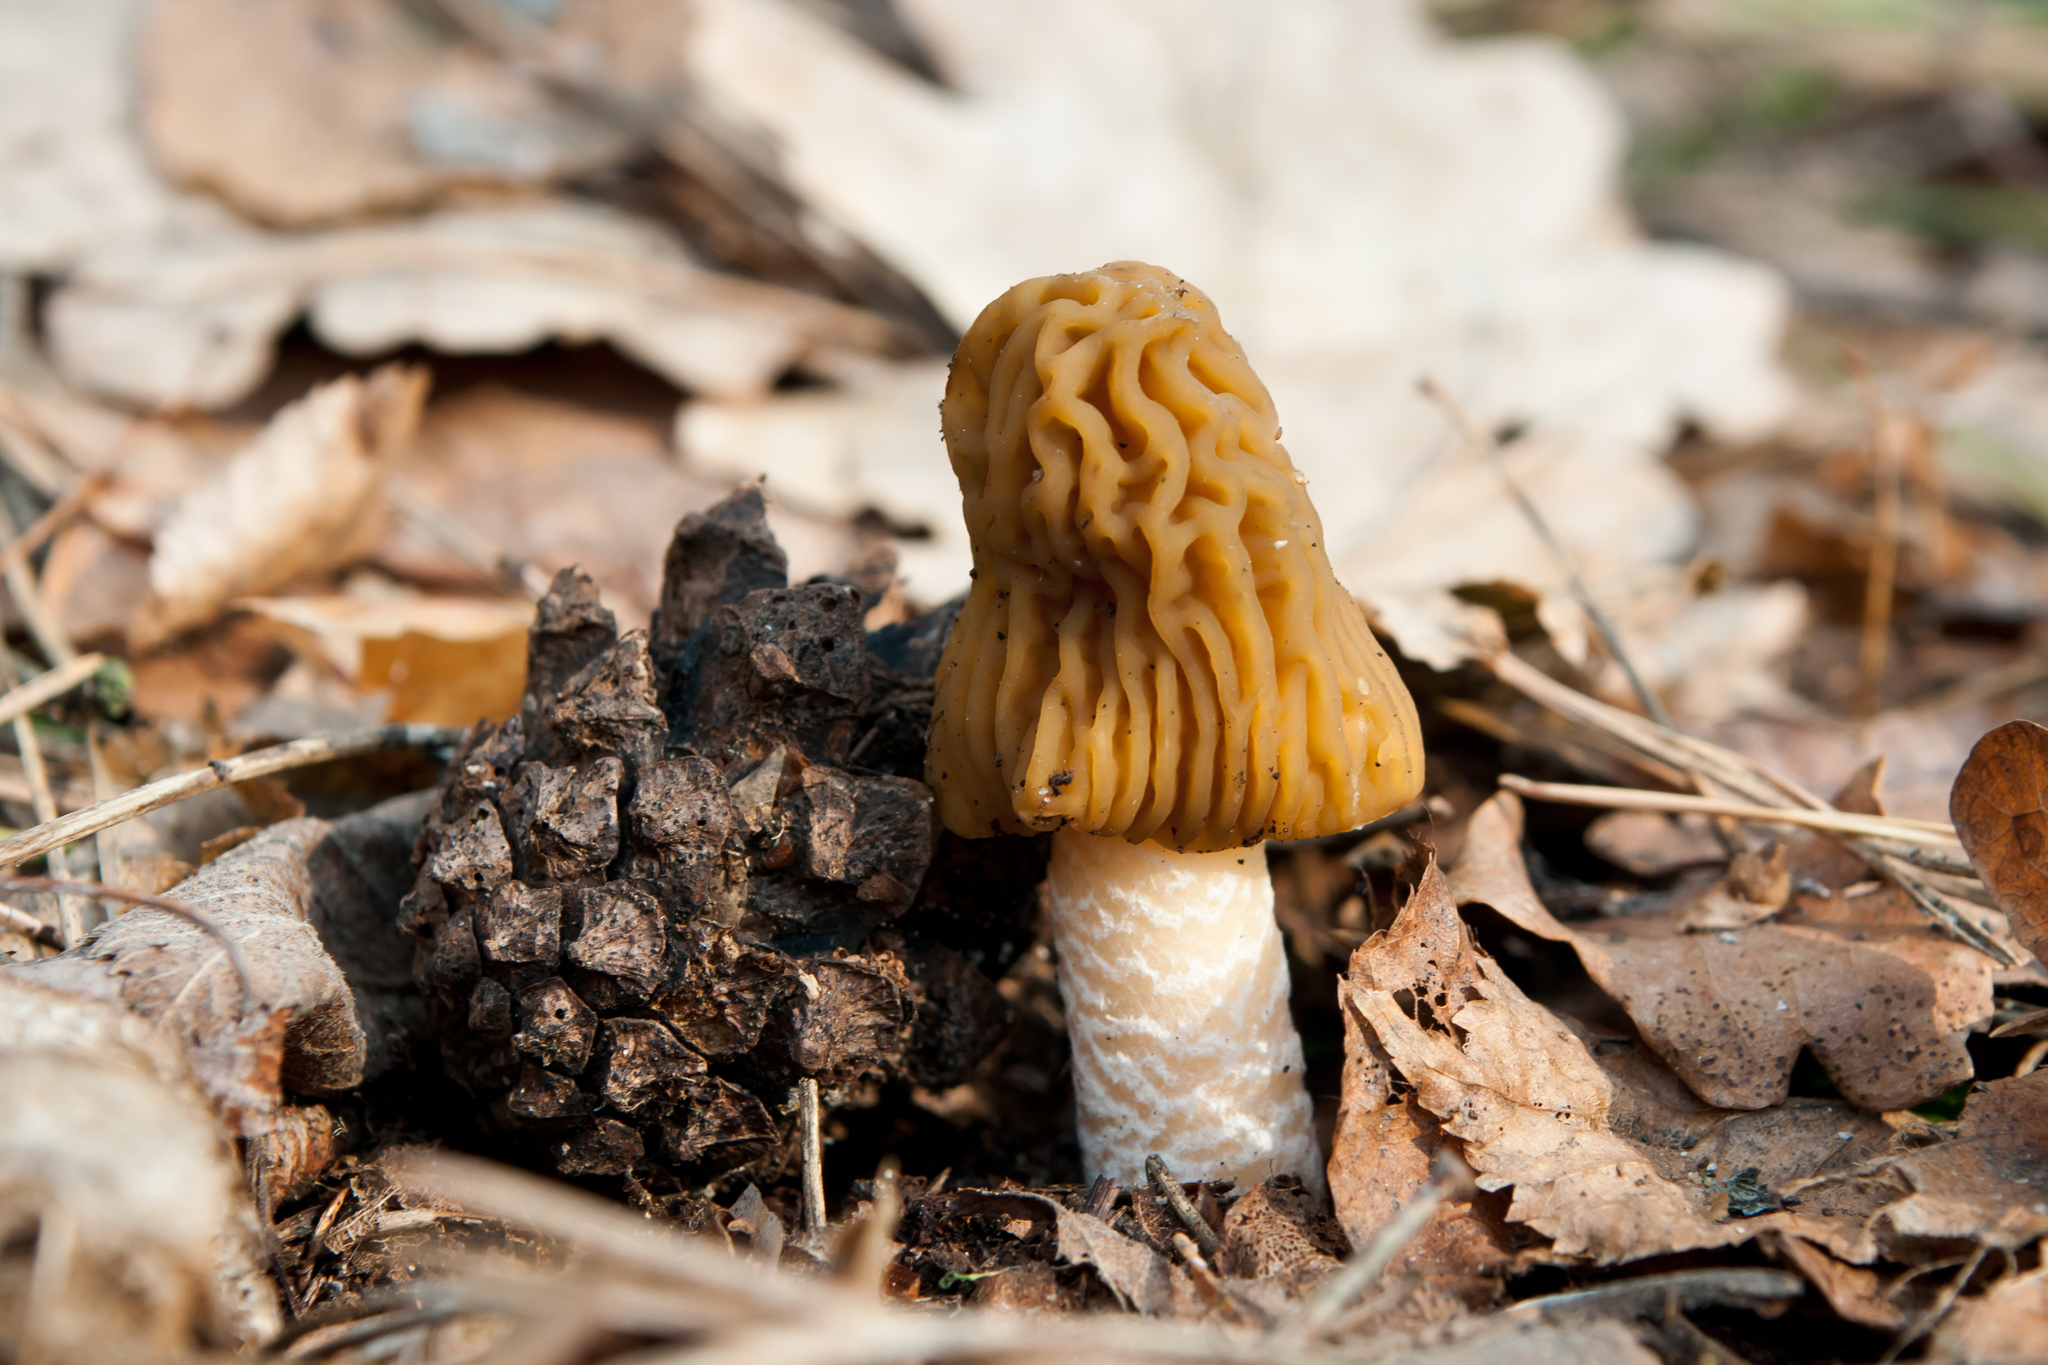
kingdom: Fungi
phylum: Ascomycota
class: Pezizomycetes
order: Pezizales
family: Morchellaceae
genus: Verpa
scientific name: Verpa bohemica
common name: Wrinkled thimble morel
